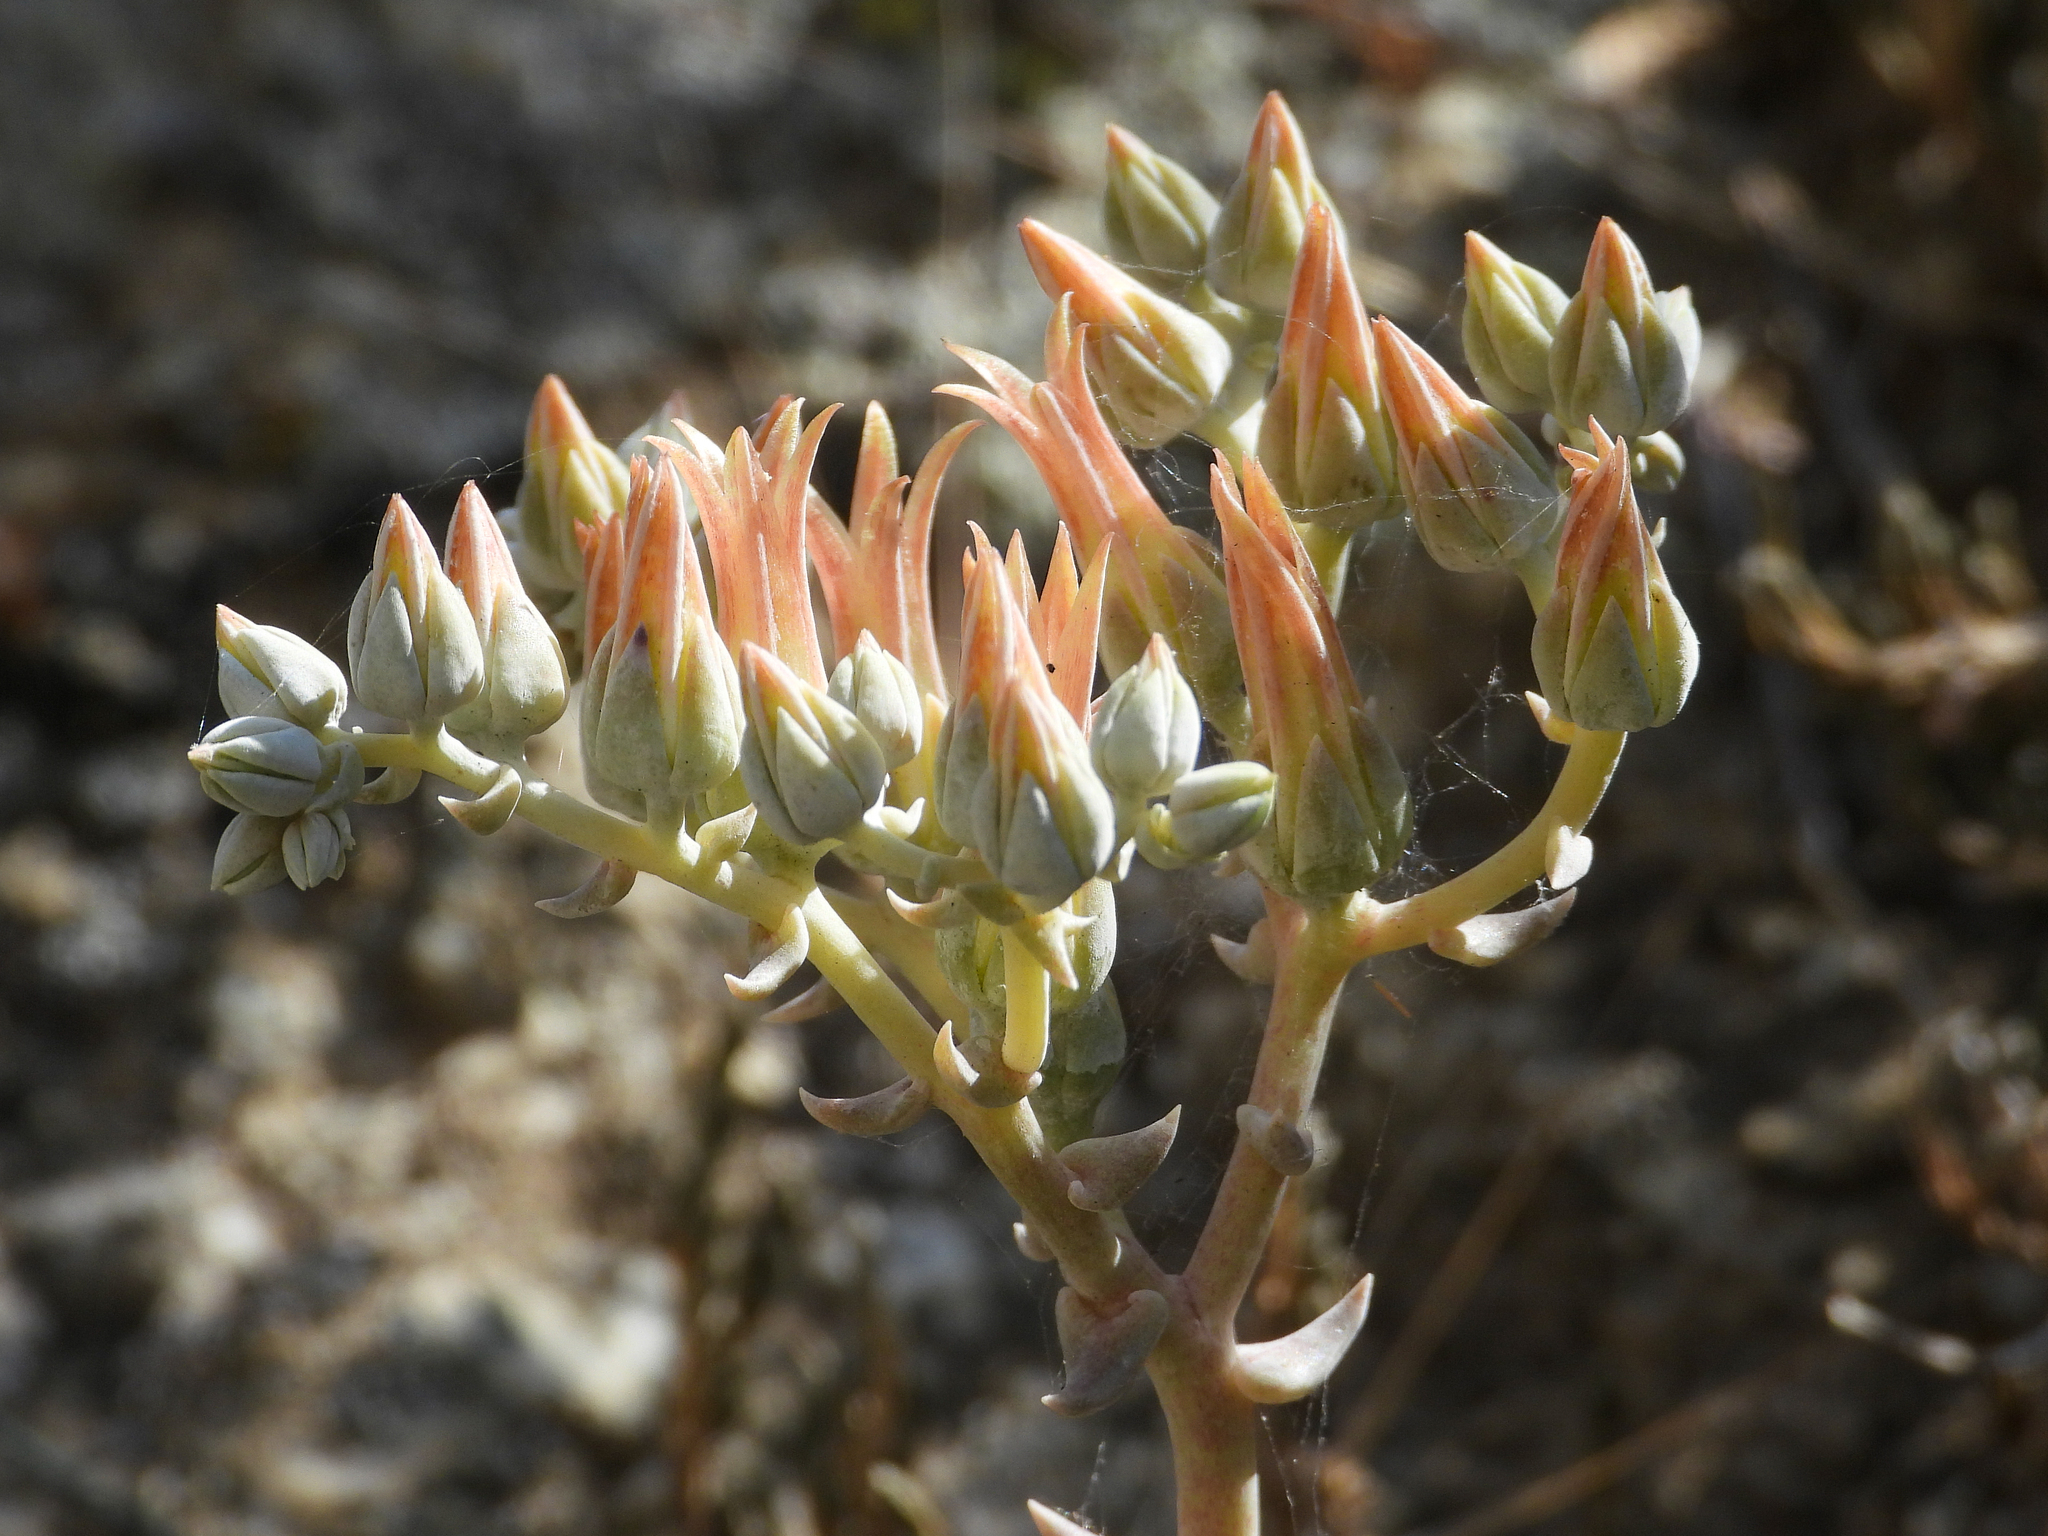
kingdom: Plantae
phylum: Tracheophyta
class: Magnoliopsida
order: Saxifragales
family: Crassulaceae
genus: Dudleya
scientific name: Dudleya abramsii
